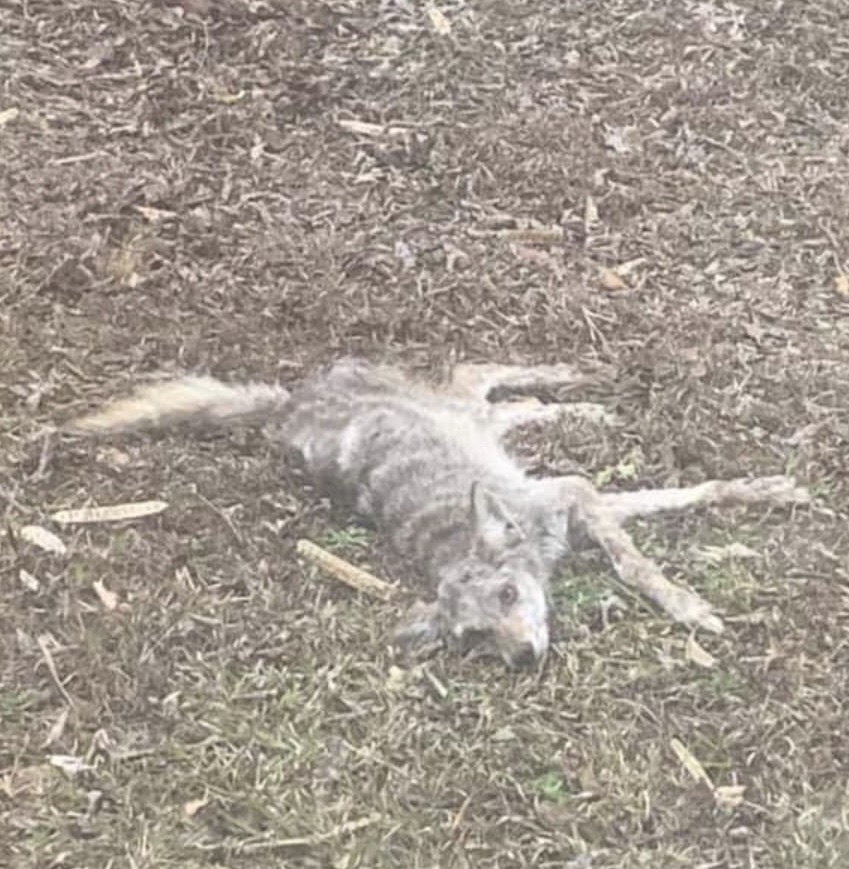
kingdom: Animalia
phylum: Chordata
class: Mammalia
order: Carnivora
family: Canidae
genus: Canis
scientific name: Canis latrans
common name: Coyote
